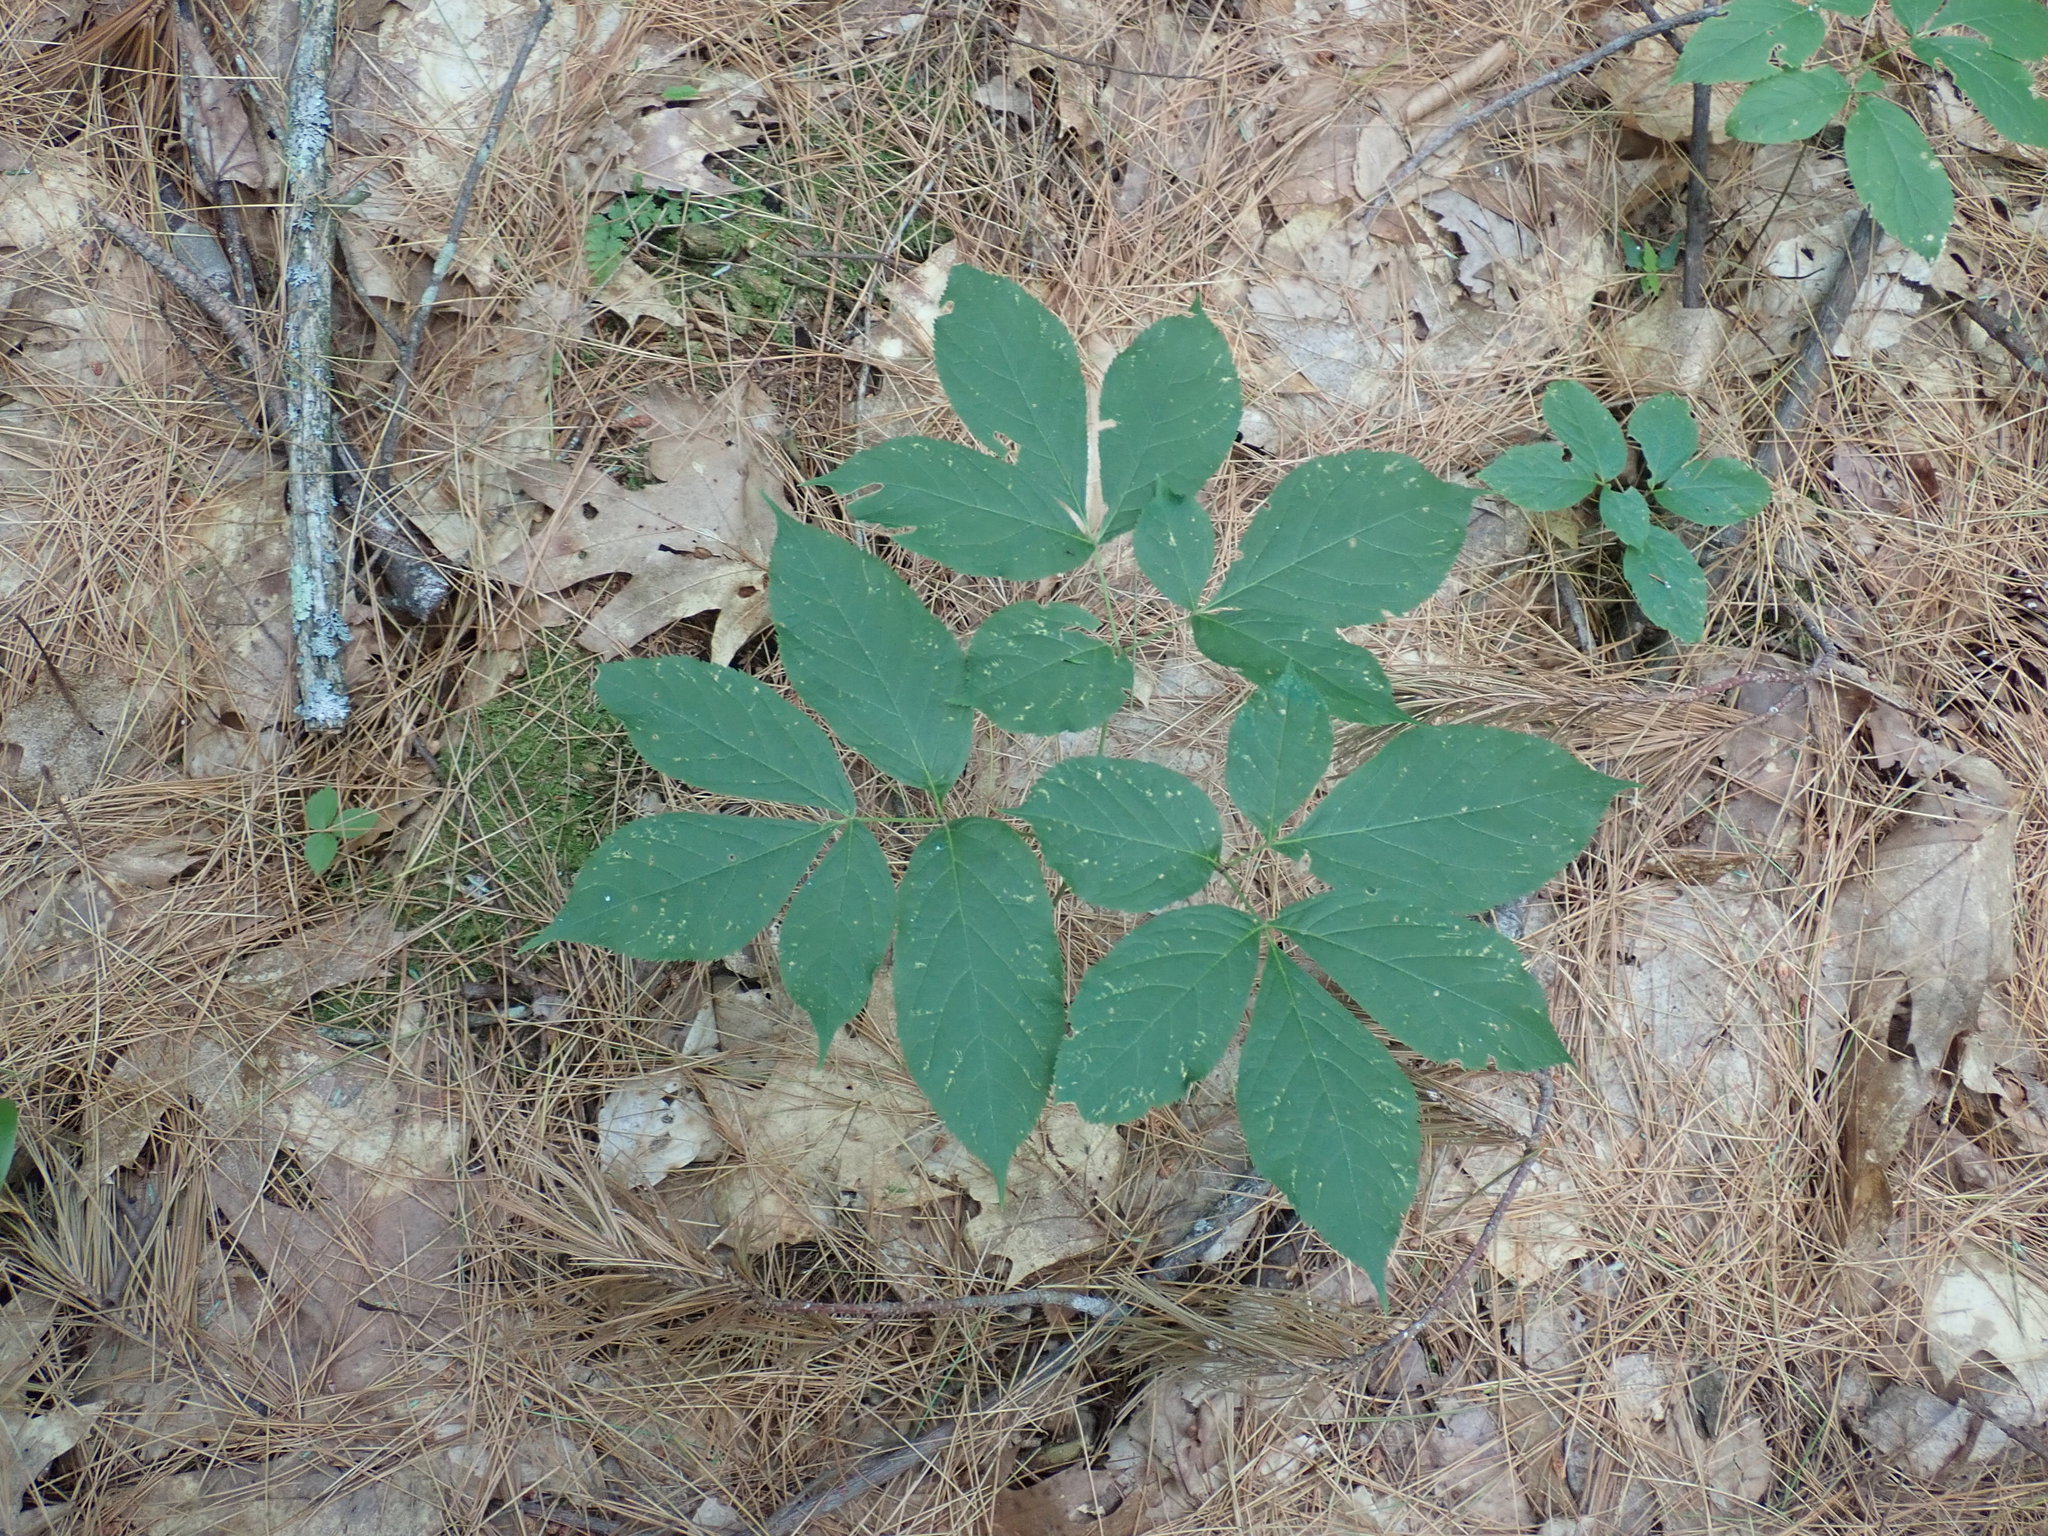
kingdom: Plantae
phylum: Tracheophyta
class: Magnoliopsida
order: Apiales
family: Araliaceae
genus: Aralia
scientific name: Aralia nudicaulis
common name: Wild sarsaparilla
